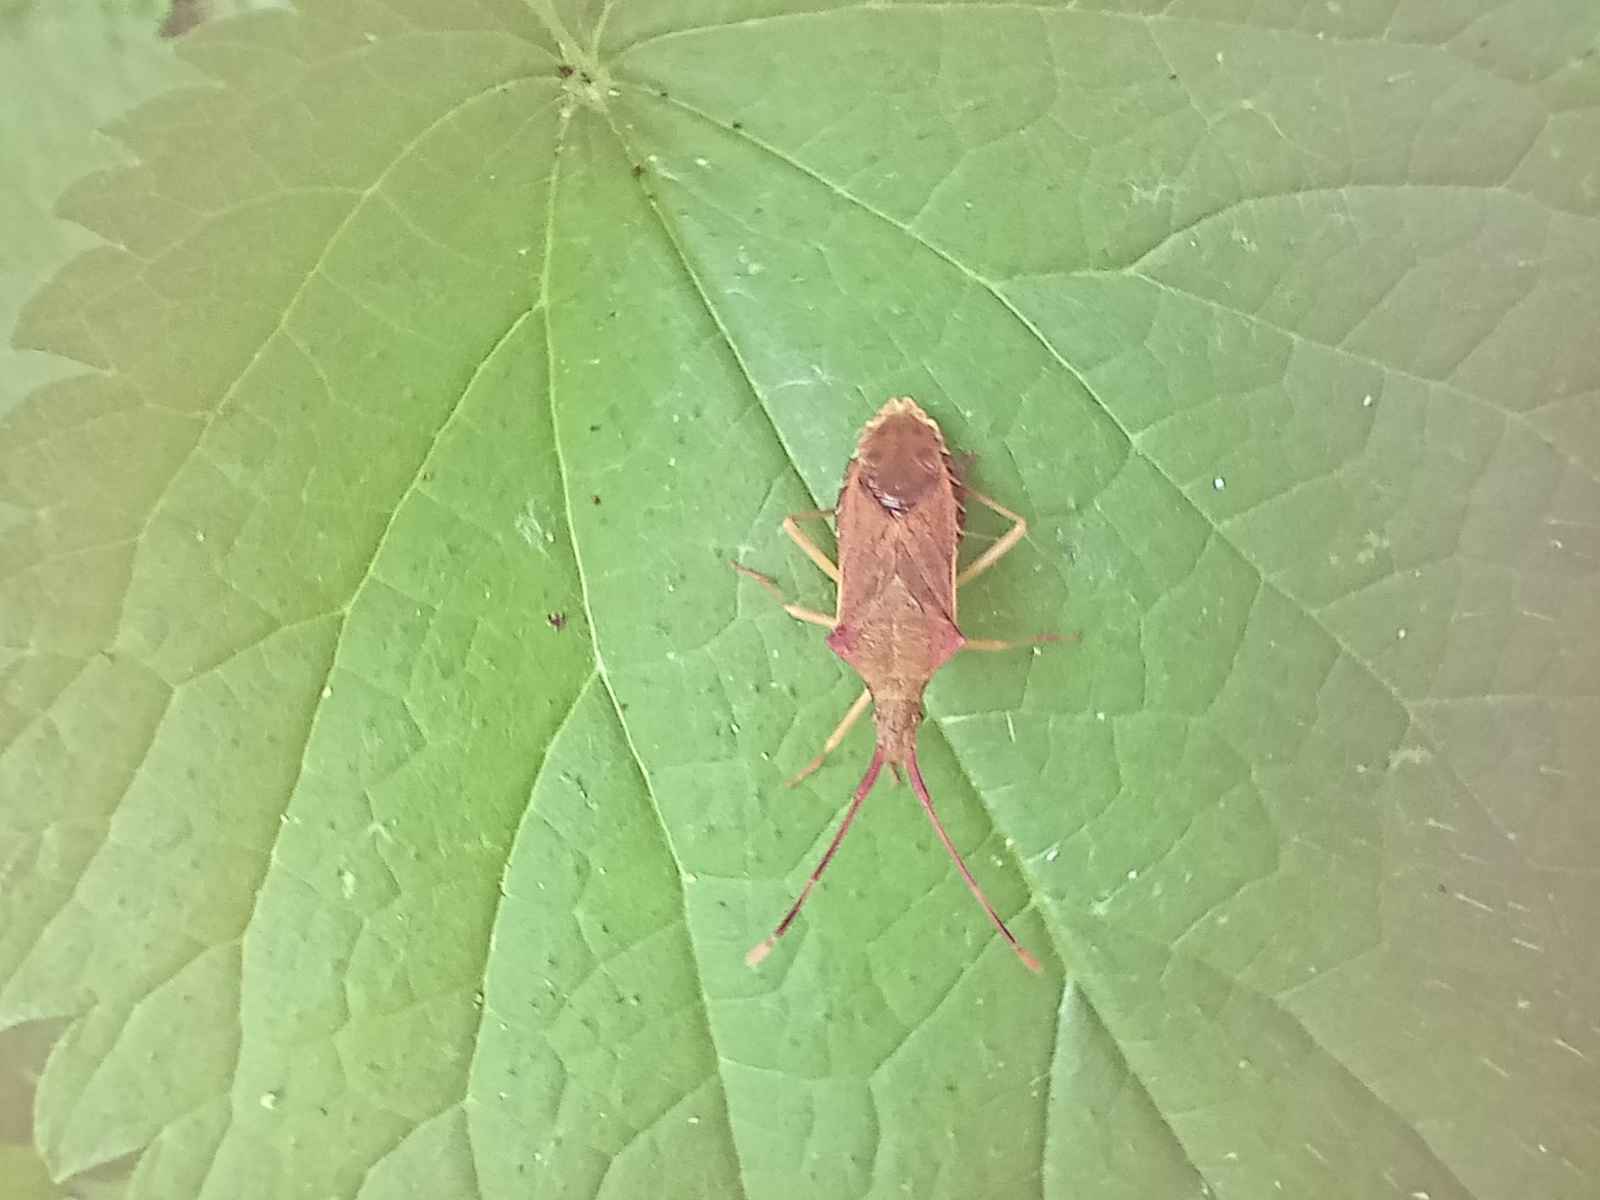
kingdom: Animalia
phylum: Arthropoda
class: Insecta
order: Hemiptera
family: Coreidae
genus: Gonocerus
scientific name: Gonocerus acuteangulatus
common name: Box bug
